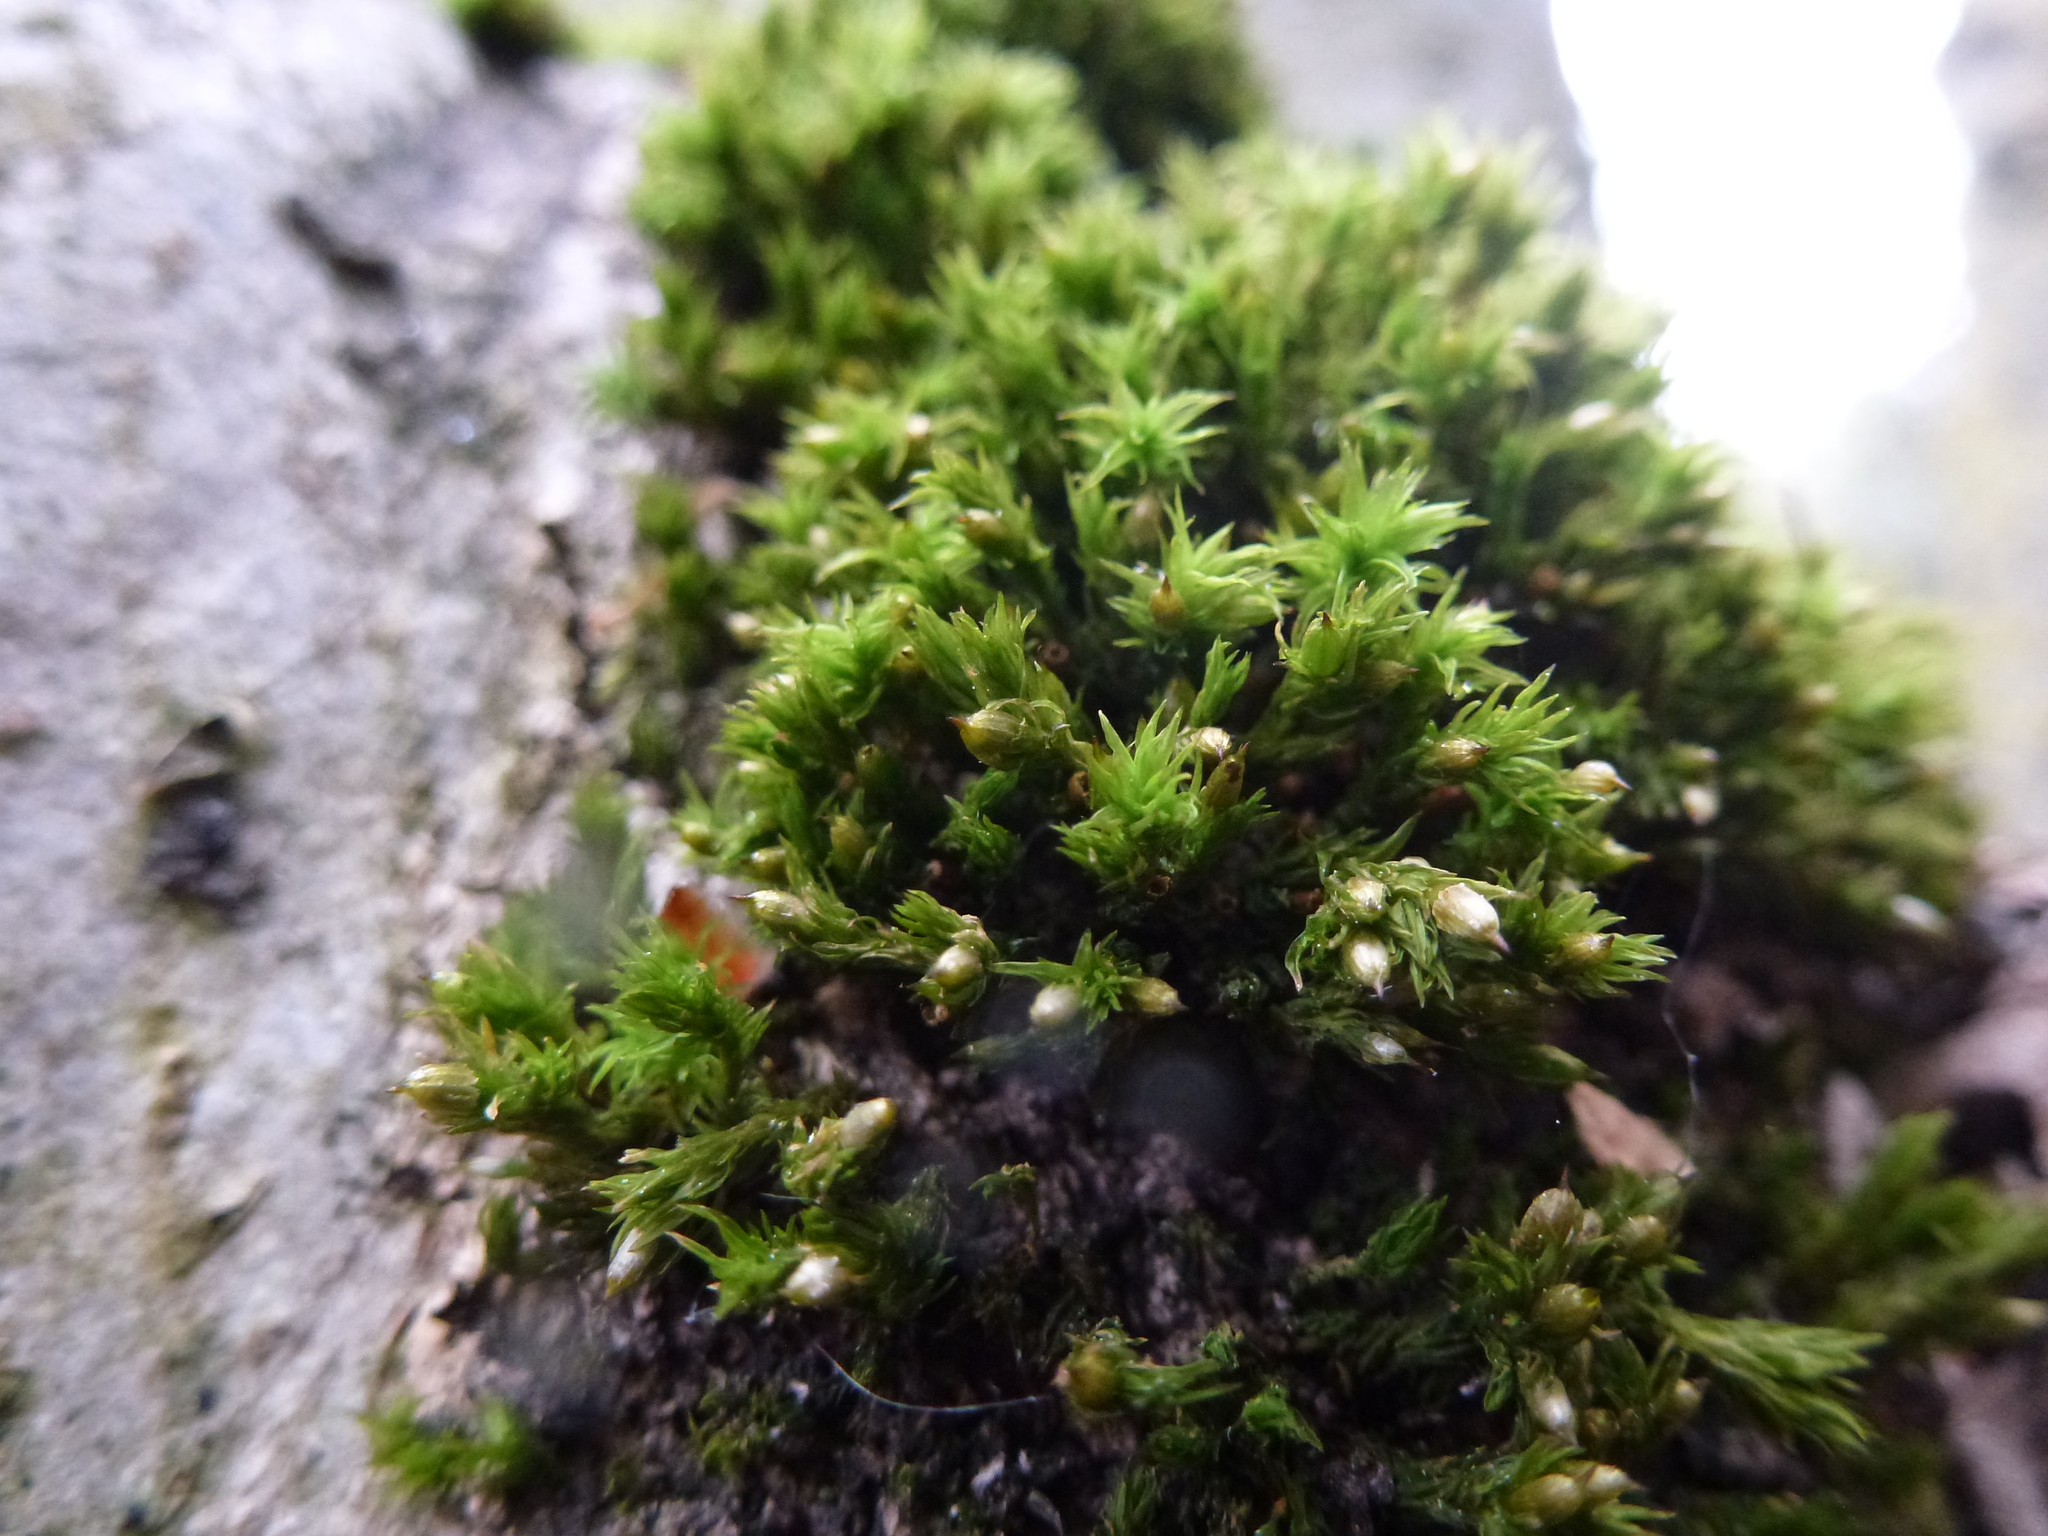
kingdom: Plantae
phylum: Bryophyta
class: Bryopsida
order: Orthotrichales
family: Orthotrichaceae
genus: Orthotrichum
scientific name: Orthotrichum stramineum
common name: Straw bristle-moss
